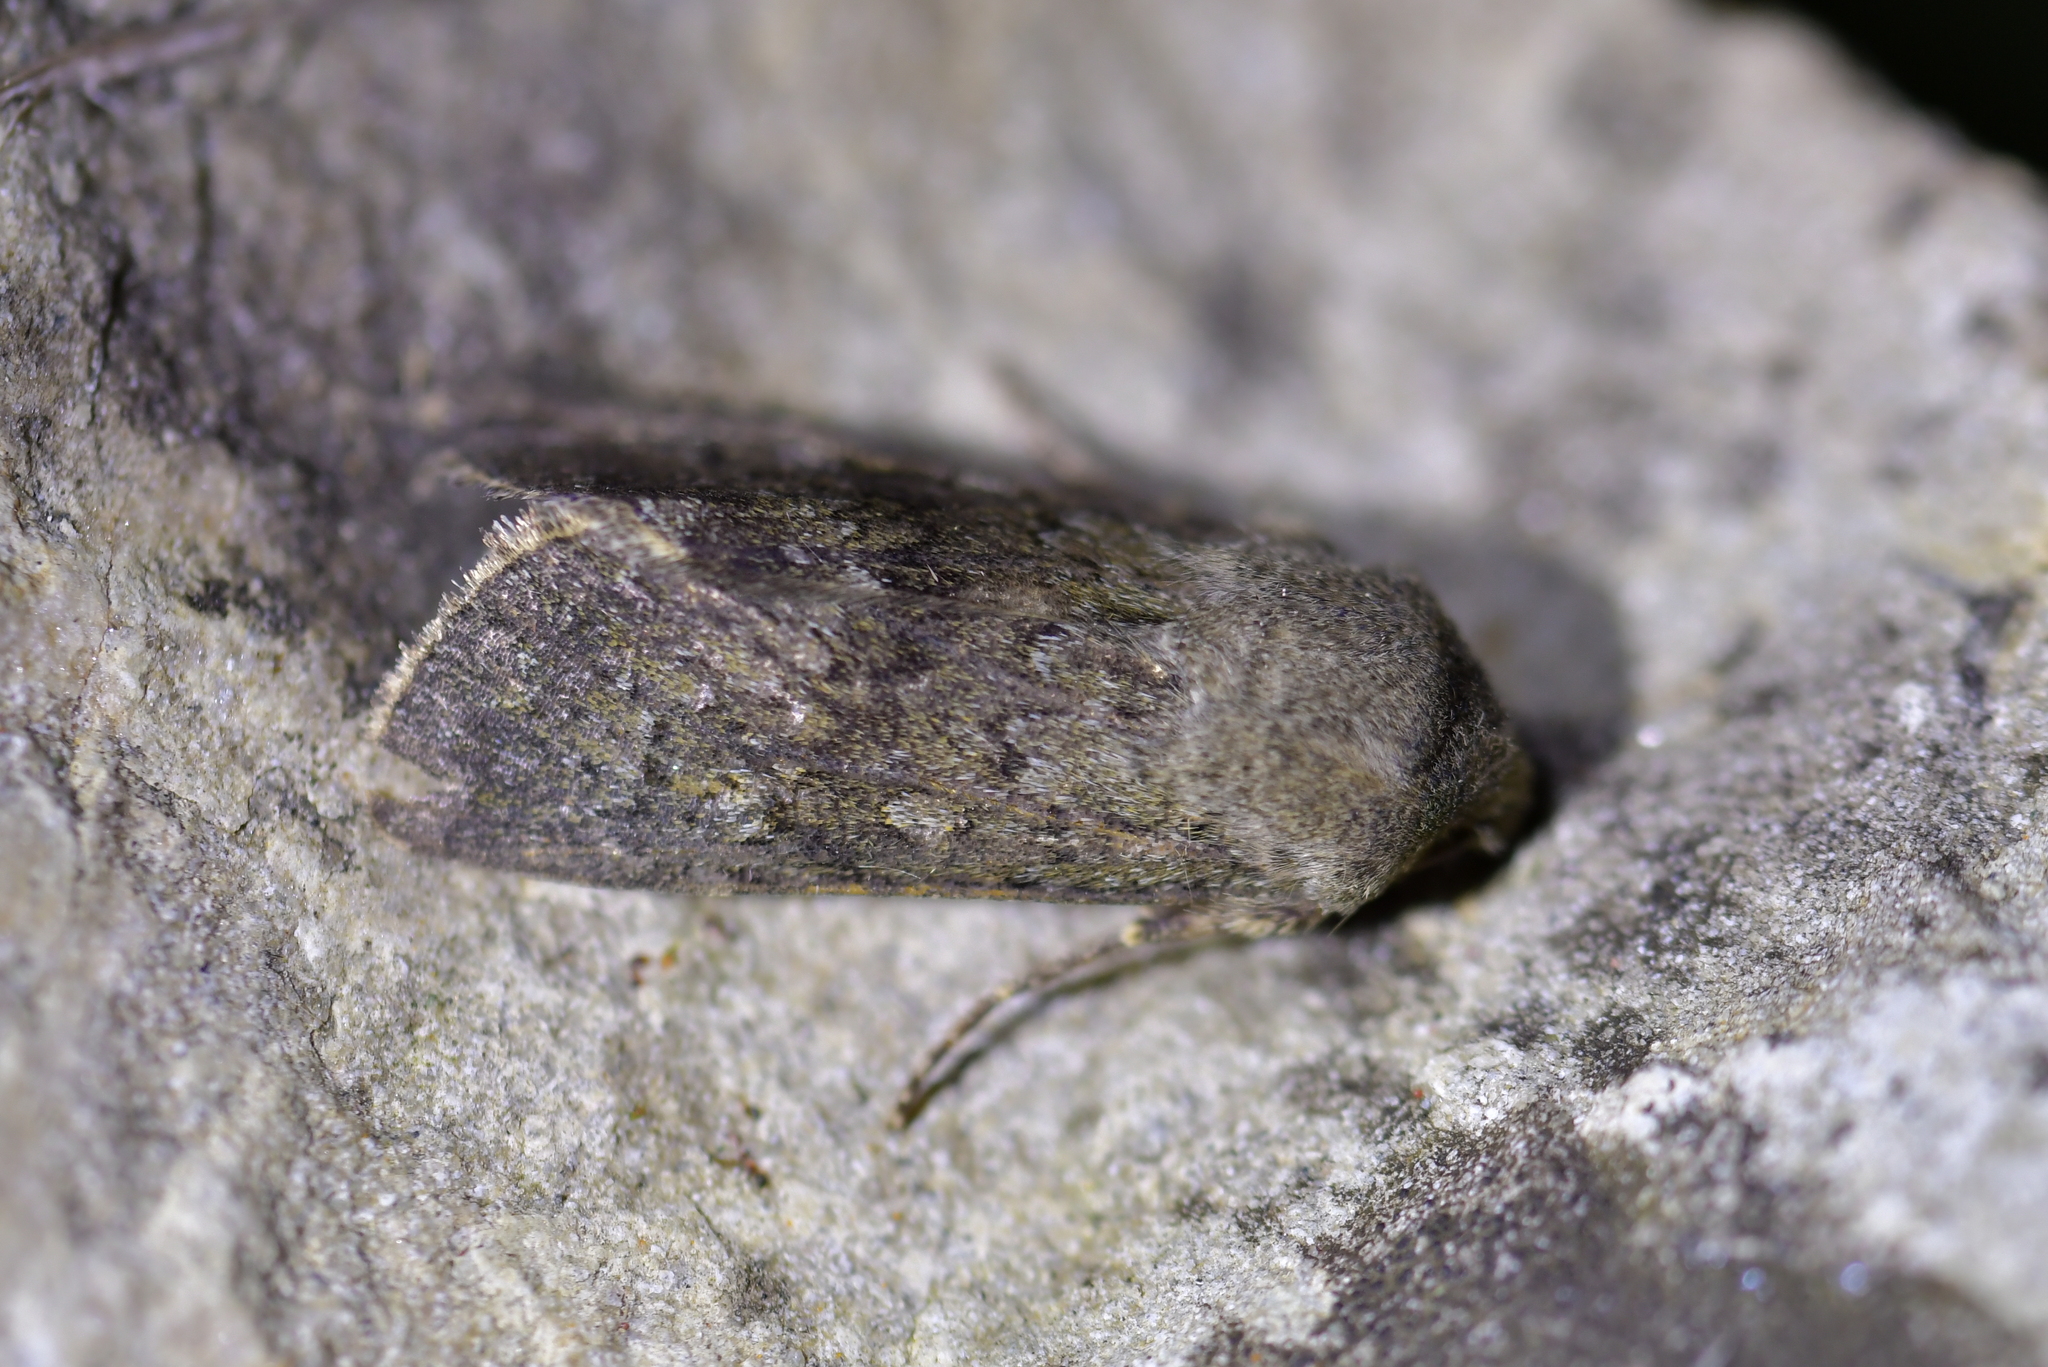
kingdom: Animalia
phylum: Arthropoda
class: Insecta
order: Lepidoptera
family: Noctuidae
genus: Ichneutica
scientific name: Ichneutica moderata
